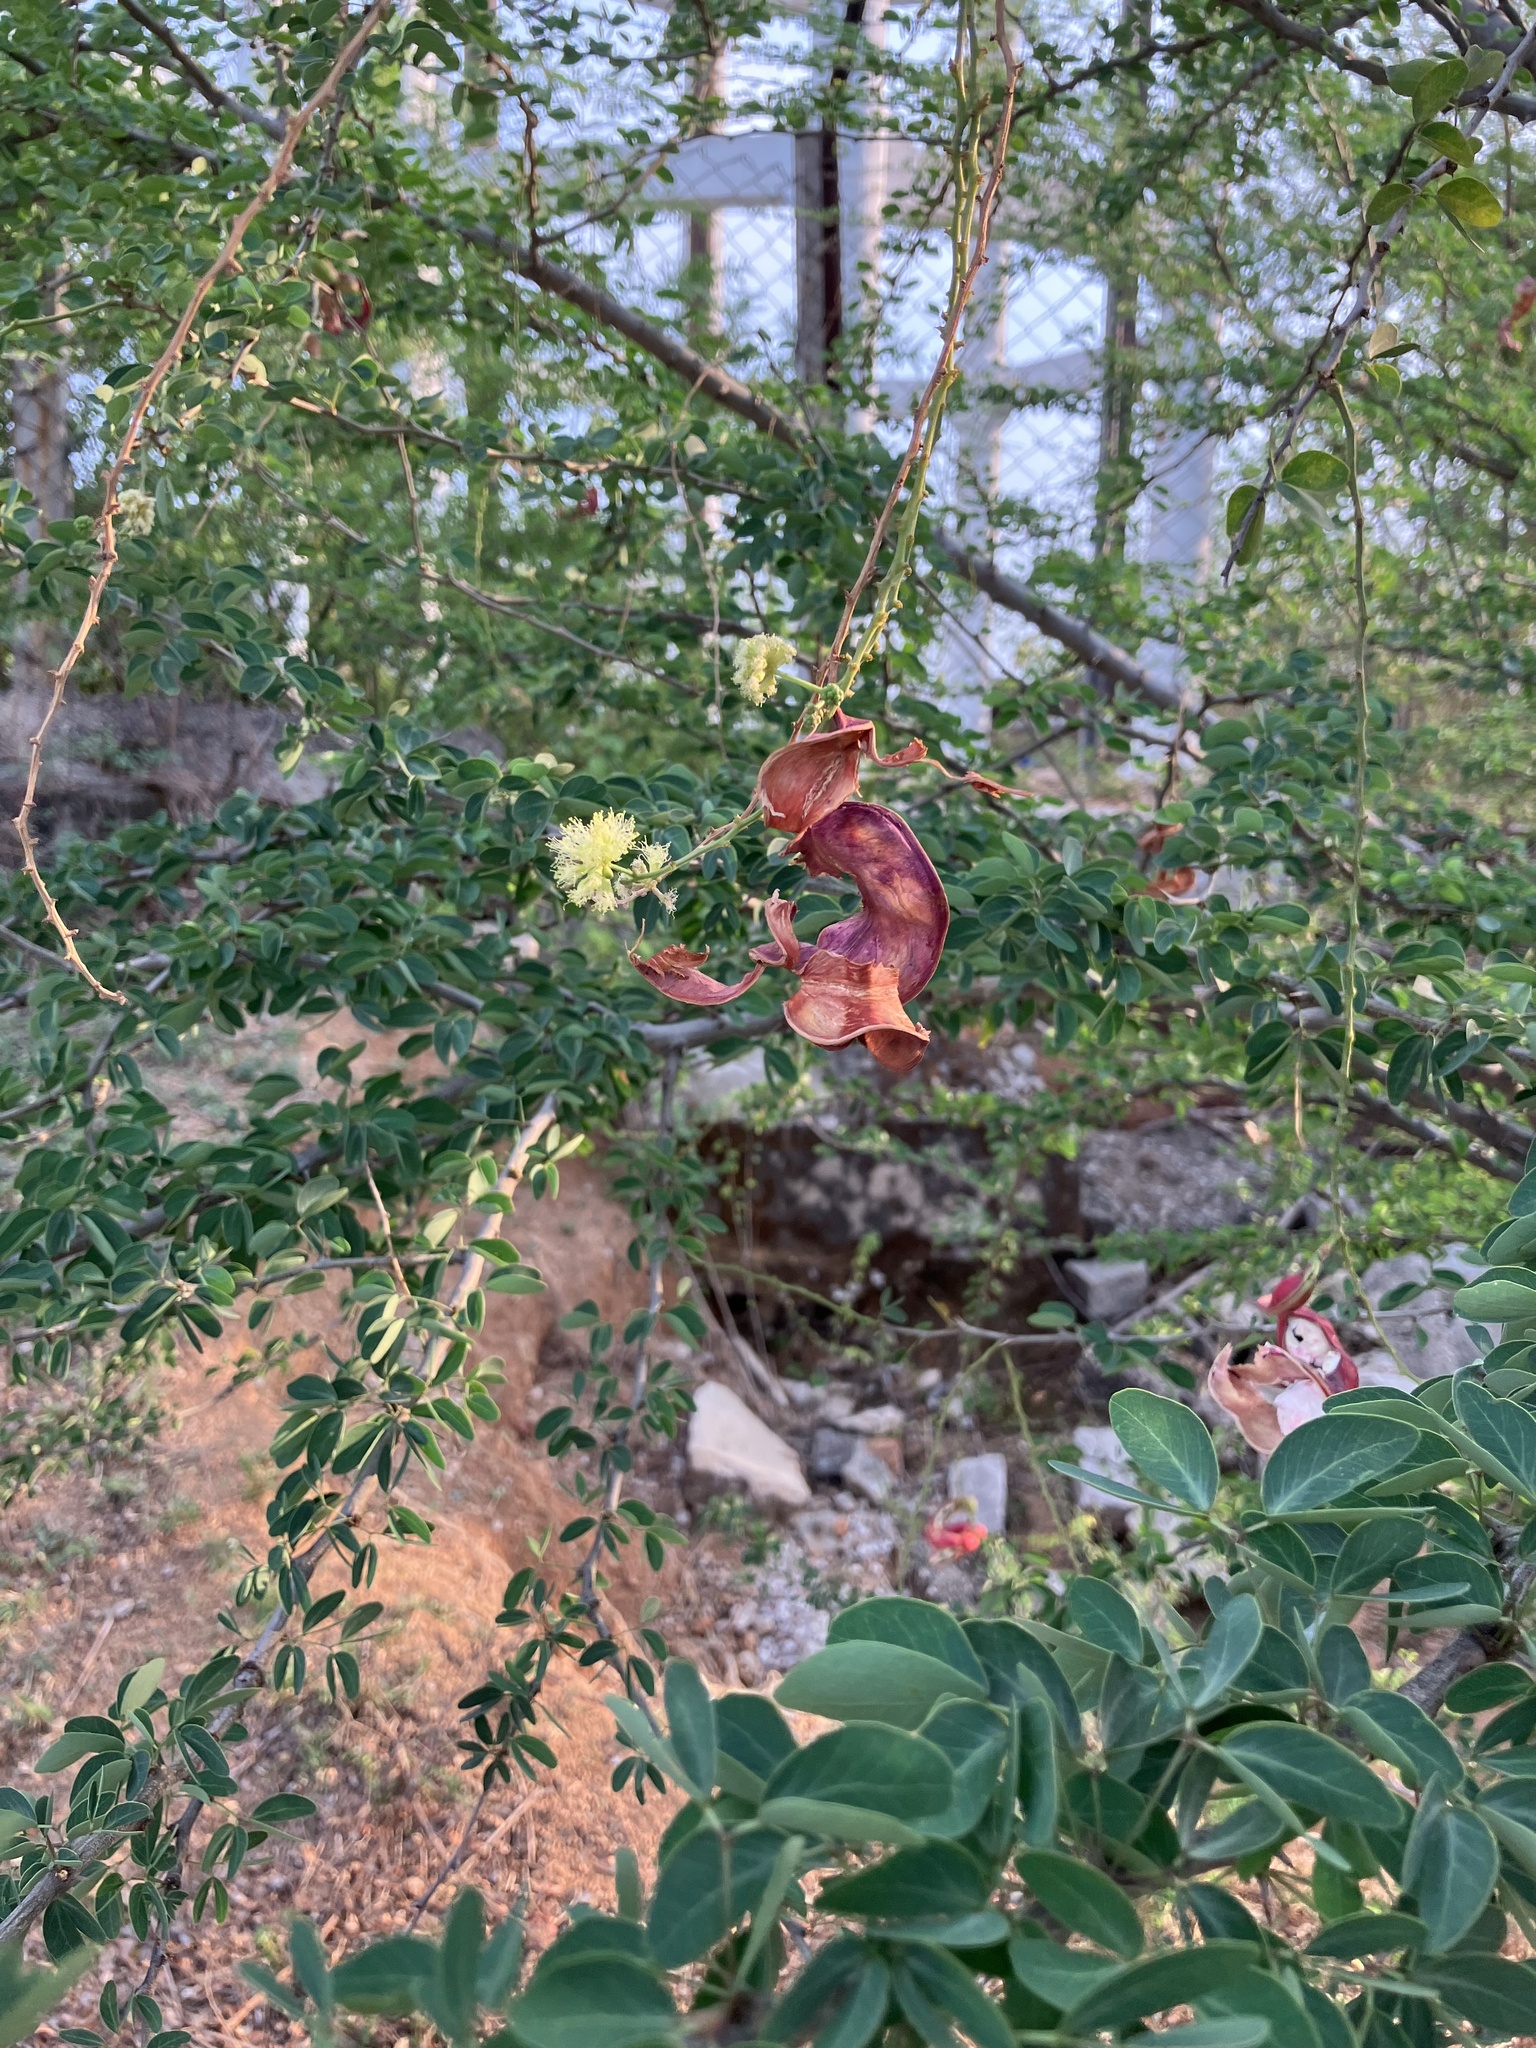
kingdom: Plantae
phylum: Tracheophyta
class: Magnoliopsida
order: Fabales
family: Fabaceae
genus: Pithecellobium
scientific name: Pithecellobium dulce
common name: Monkeypod
